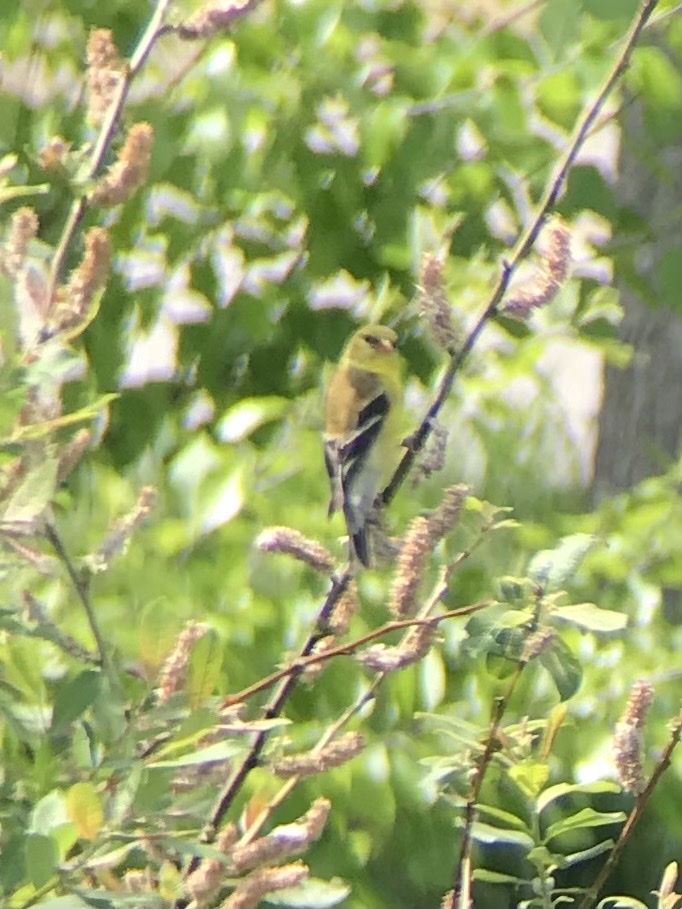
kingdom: Animalia
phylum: Chordata
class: Aves
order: Passeriformes
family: Fringillidae
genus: Spinus
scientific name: Spinus tristis
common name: American goldfinch
